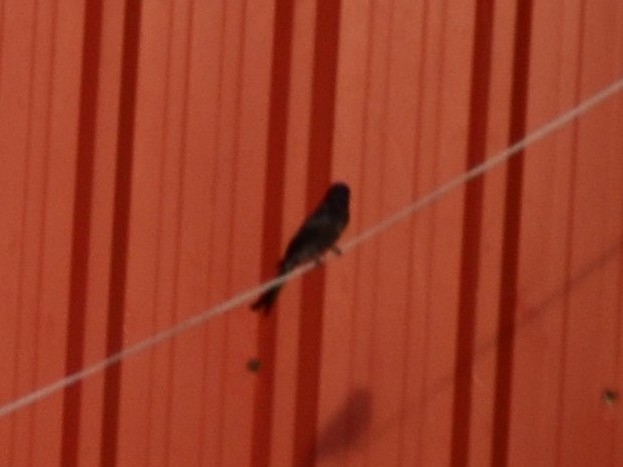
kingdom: Animalia
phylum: Chordata
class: Aves
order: Passeriformes
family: Dicruridae
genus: Dicrurus
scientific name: Dicrurus macrocercus
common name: Black drongo
